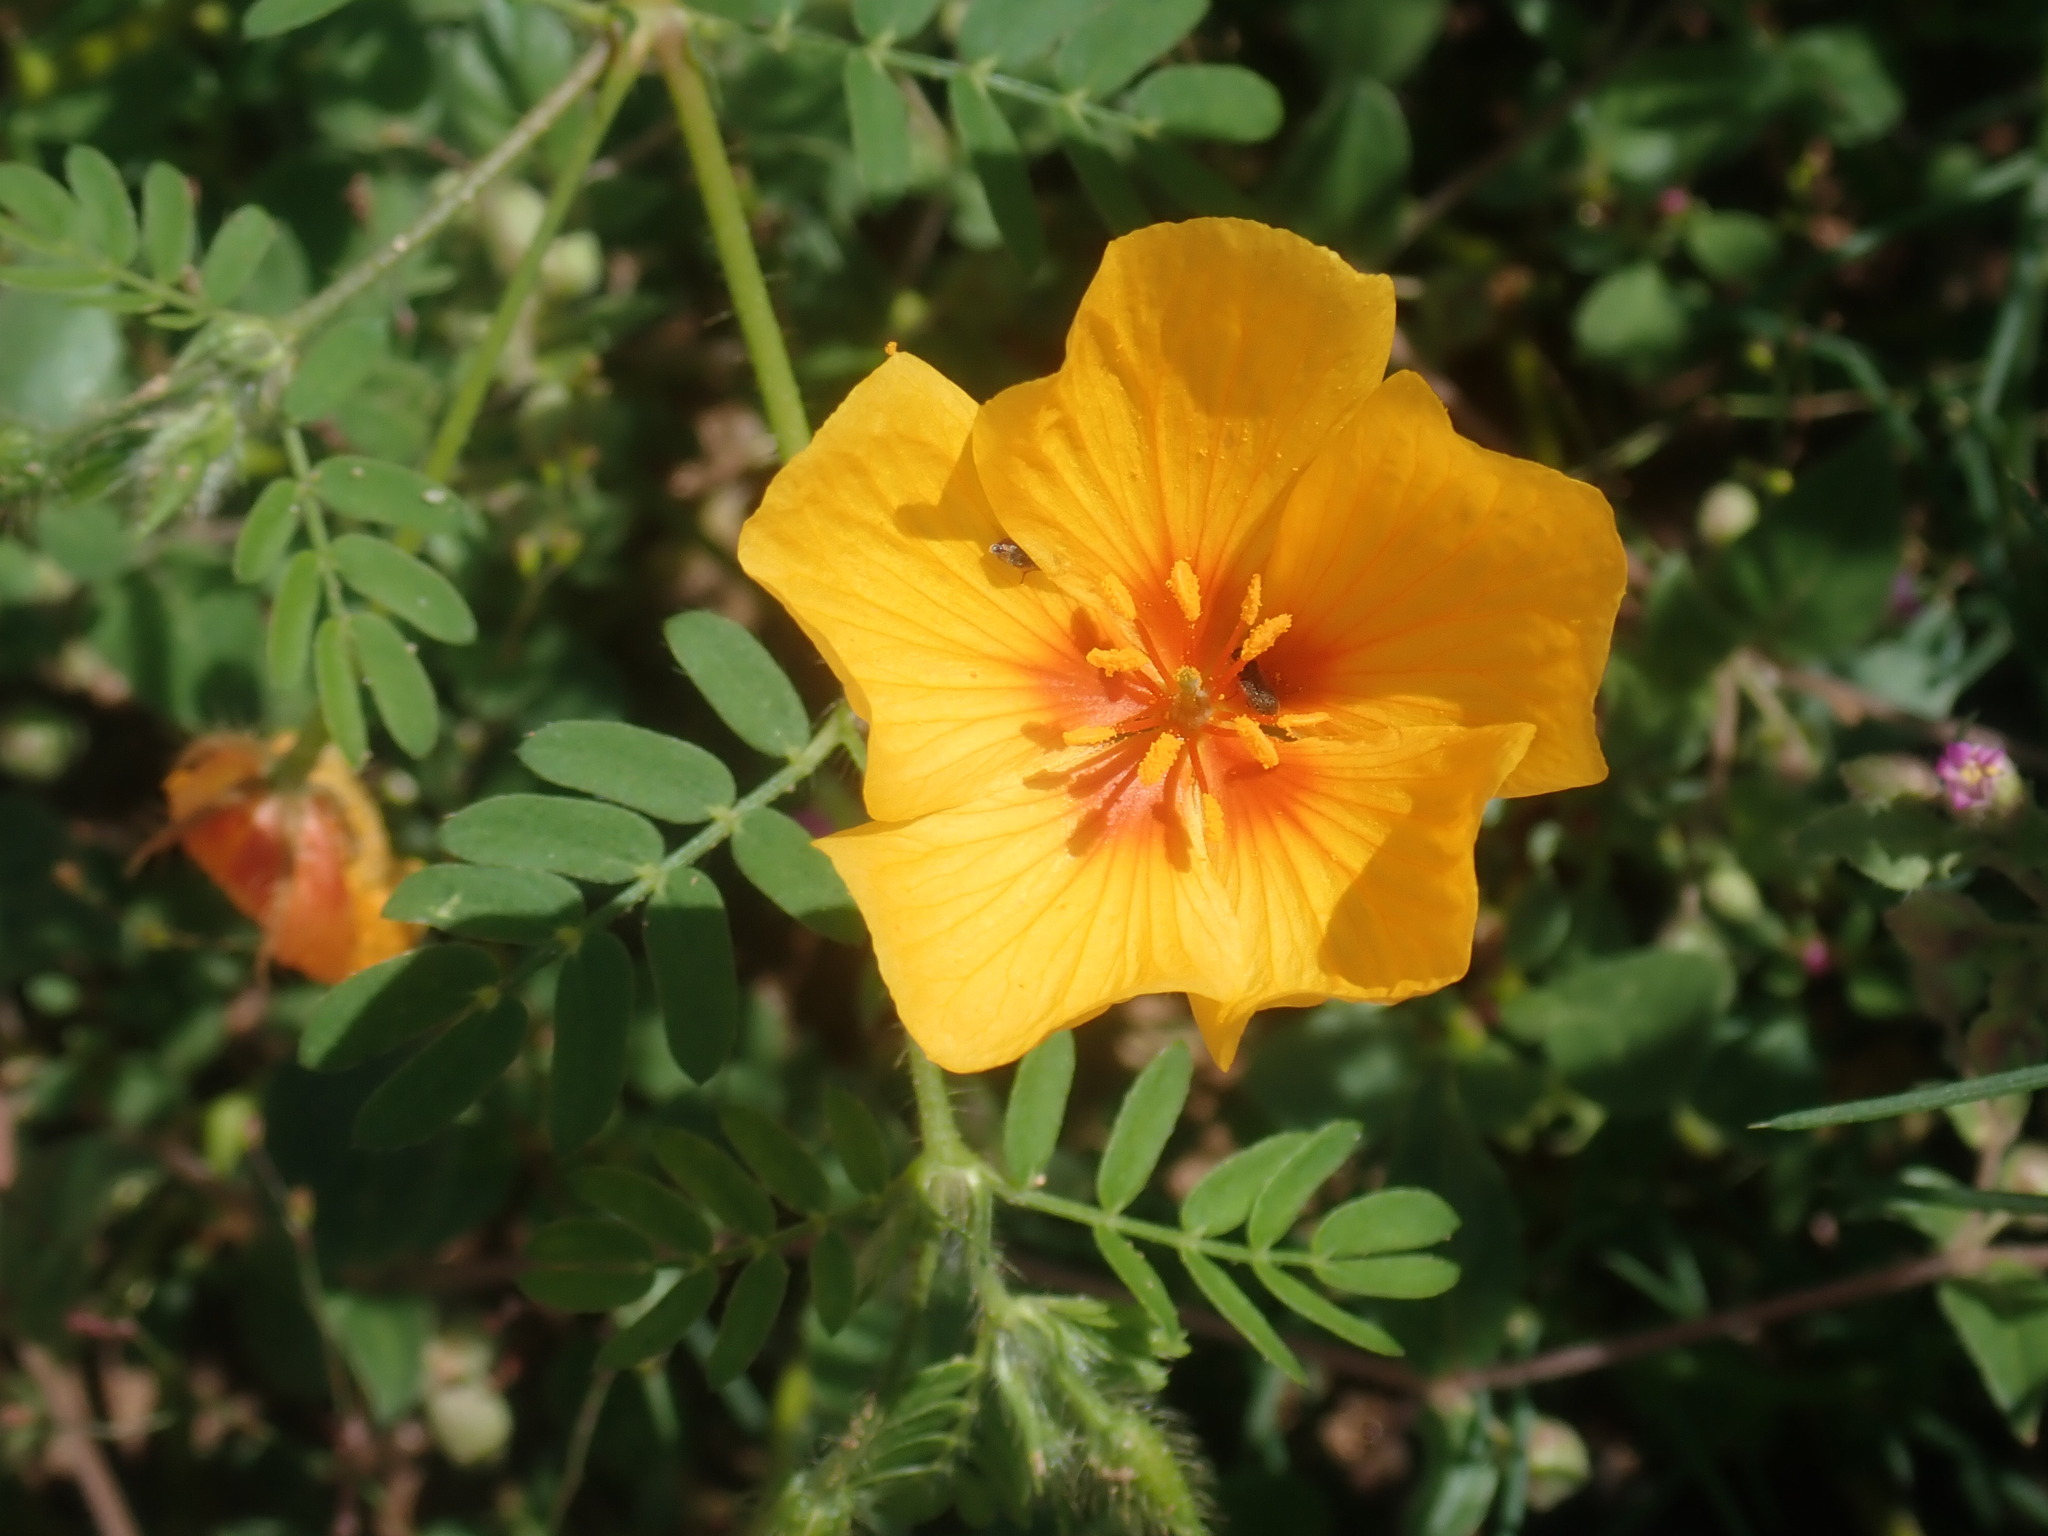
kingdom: Plantae
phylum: Tracheophyta
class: Magnoliopsida
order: Zygophyllales
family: Zygophyllaceae
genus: Kallstroemia
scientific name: Kallstroemia grandiflora
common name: Arizona-poppy
